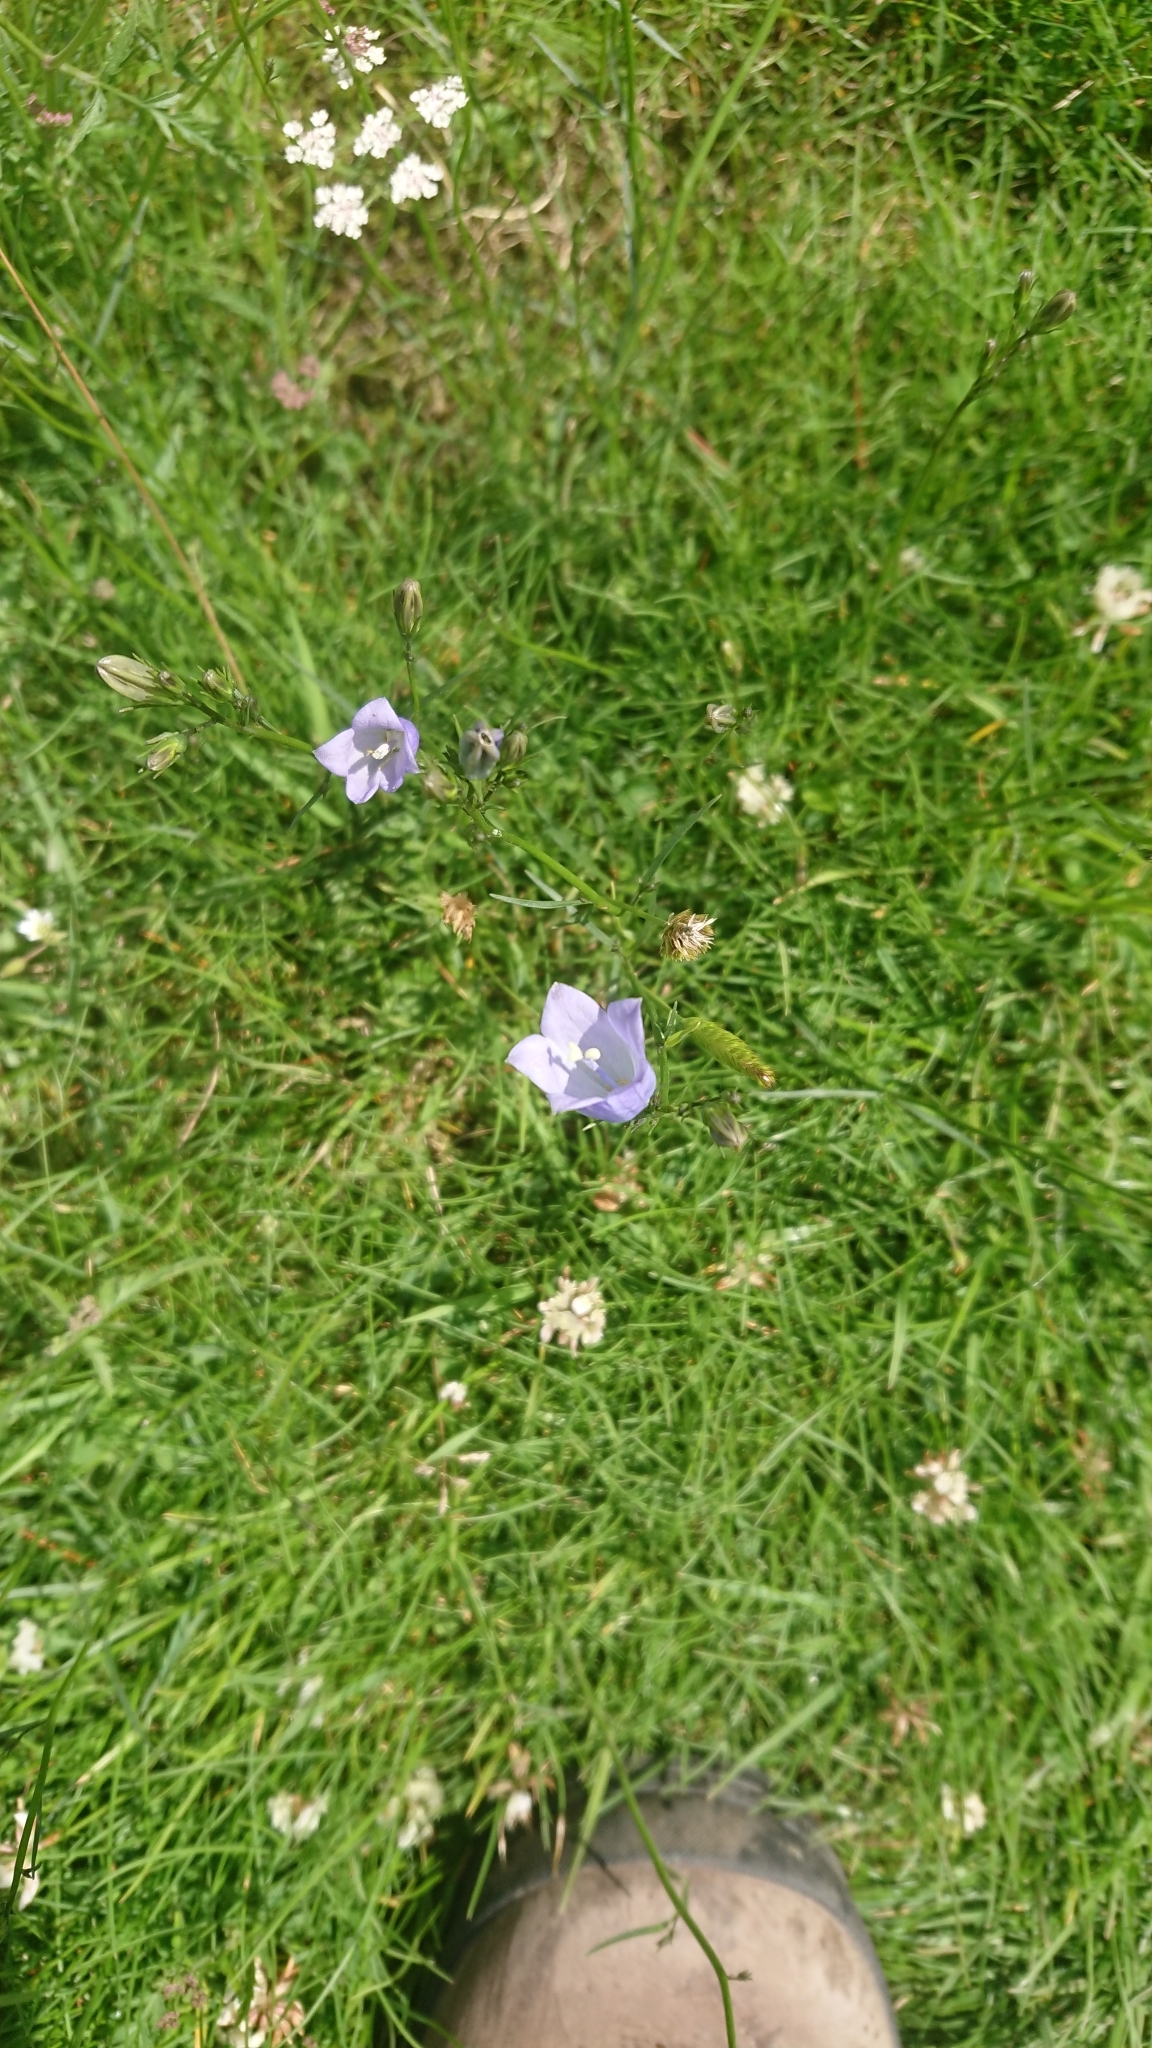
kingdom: Plantae
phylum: Tracheophyta
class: Magnoliopsida
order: Asterales
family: Campanulaceae
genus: Campanula
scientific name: Campanula rotundifolia
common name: Harebell
